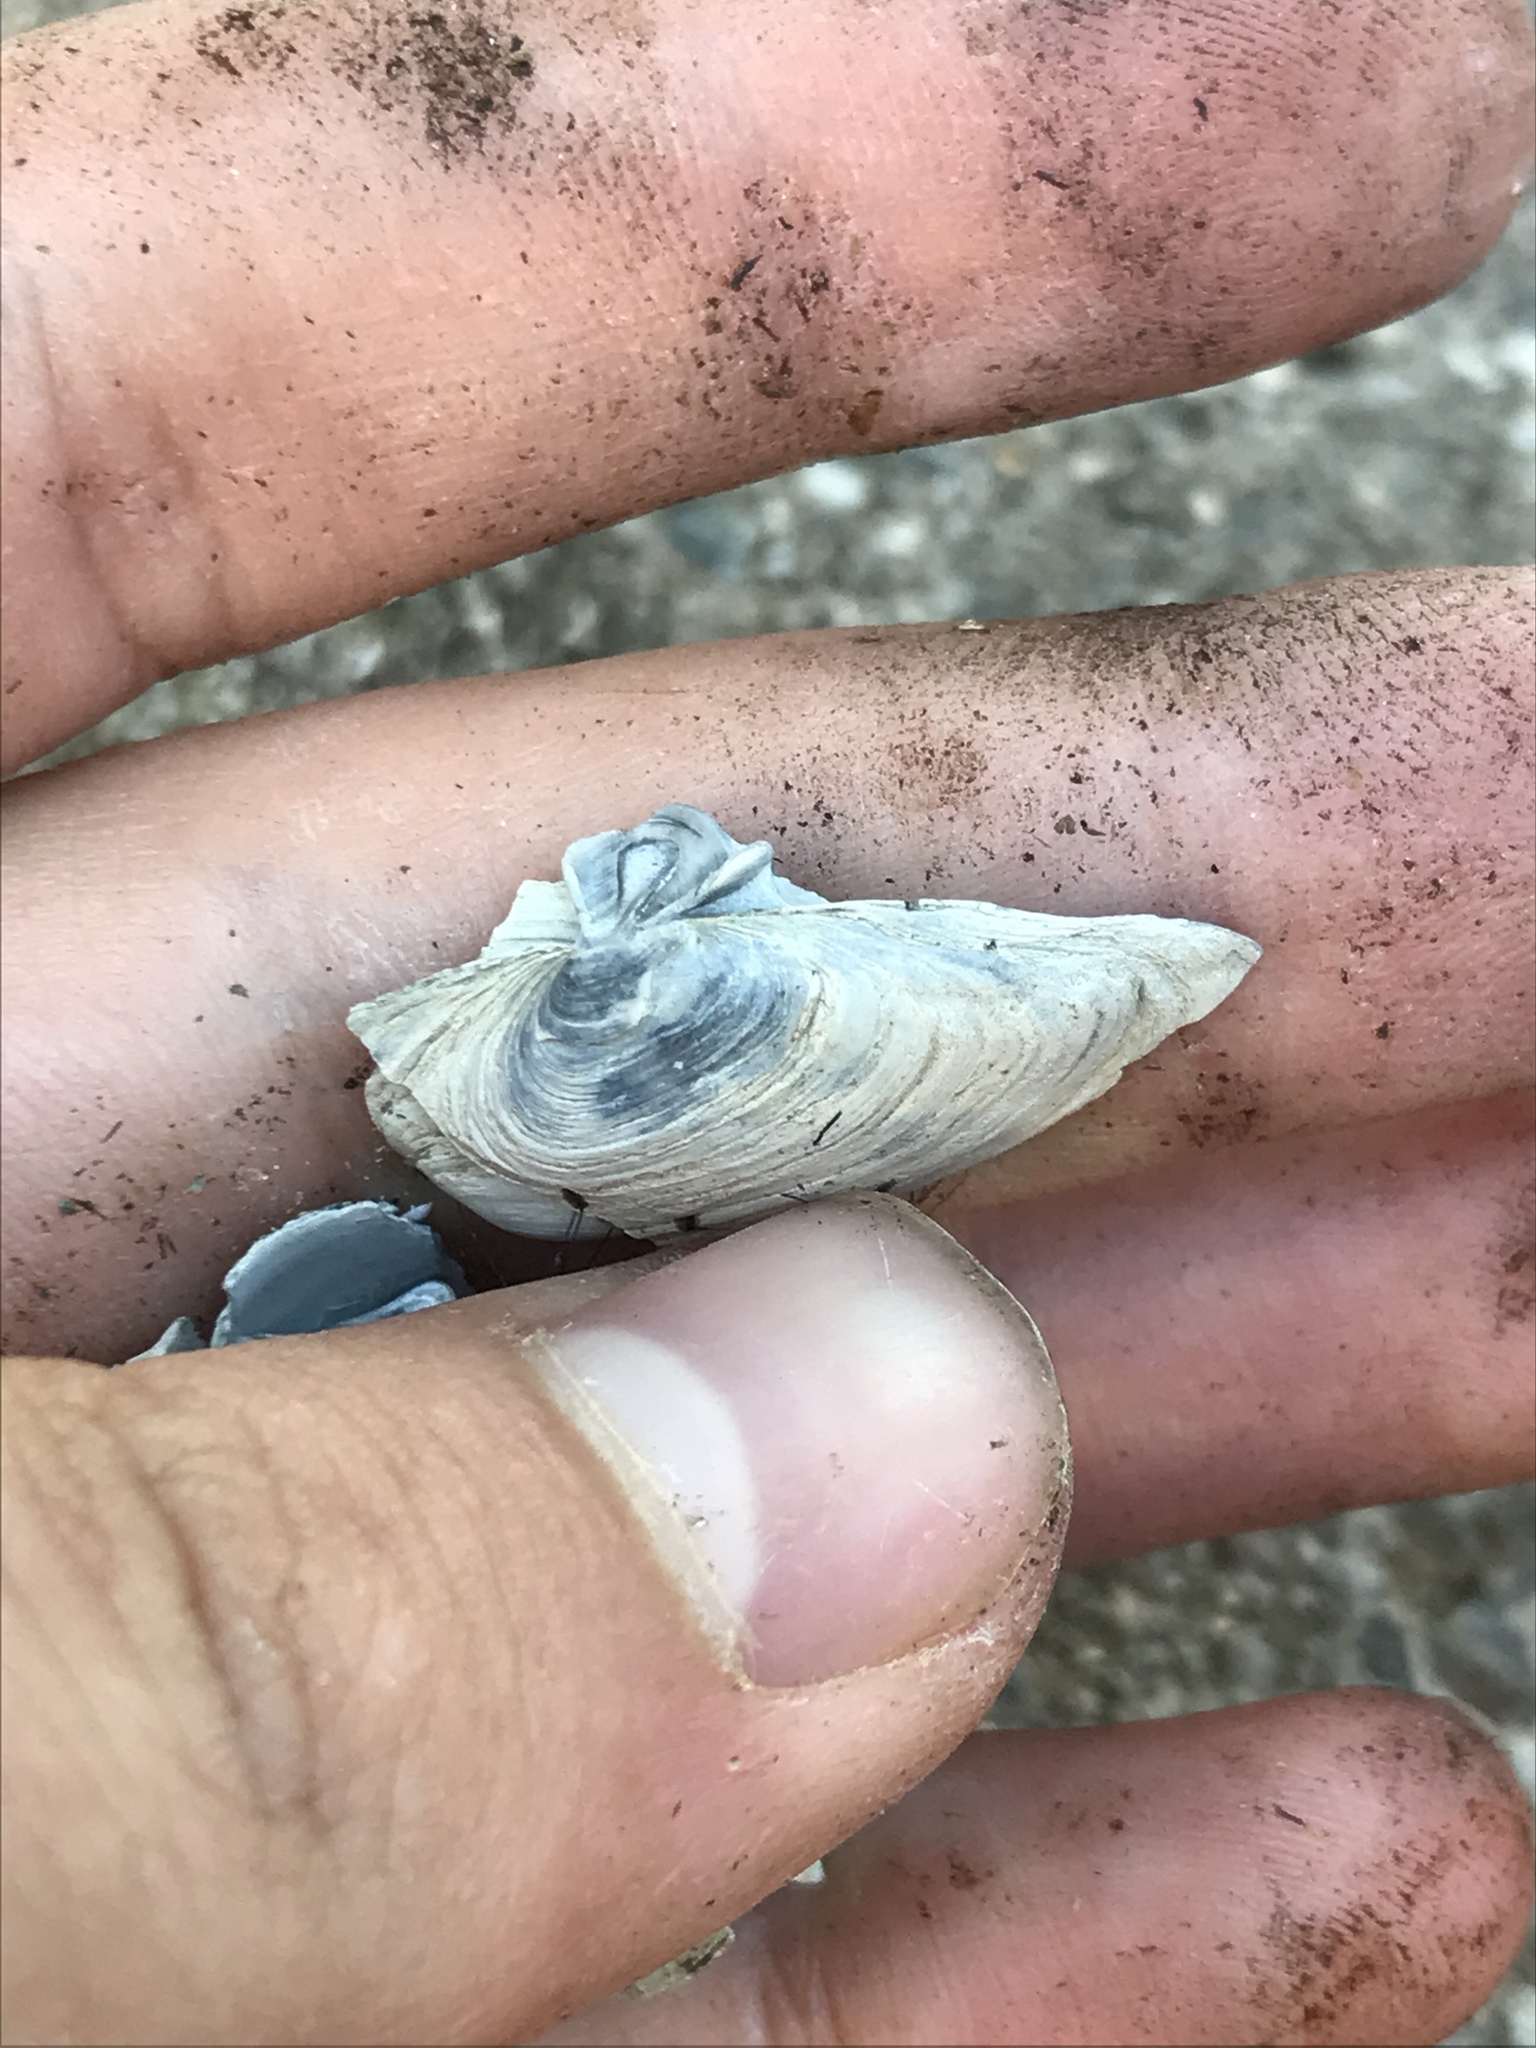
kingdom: Animalia
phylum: Mollusca
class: Bivalvia
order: Myida
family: Myidae
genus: Mya
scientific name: Mya arenaria
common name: Soft-shelled clam
